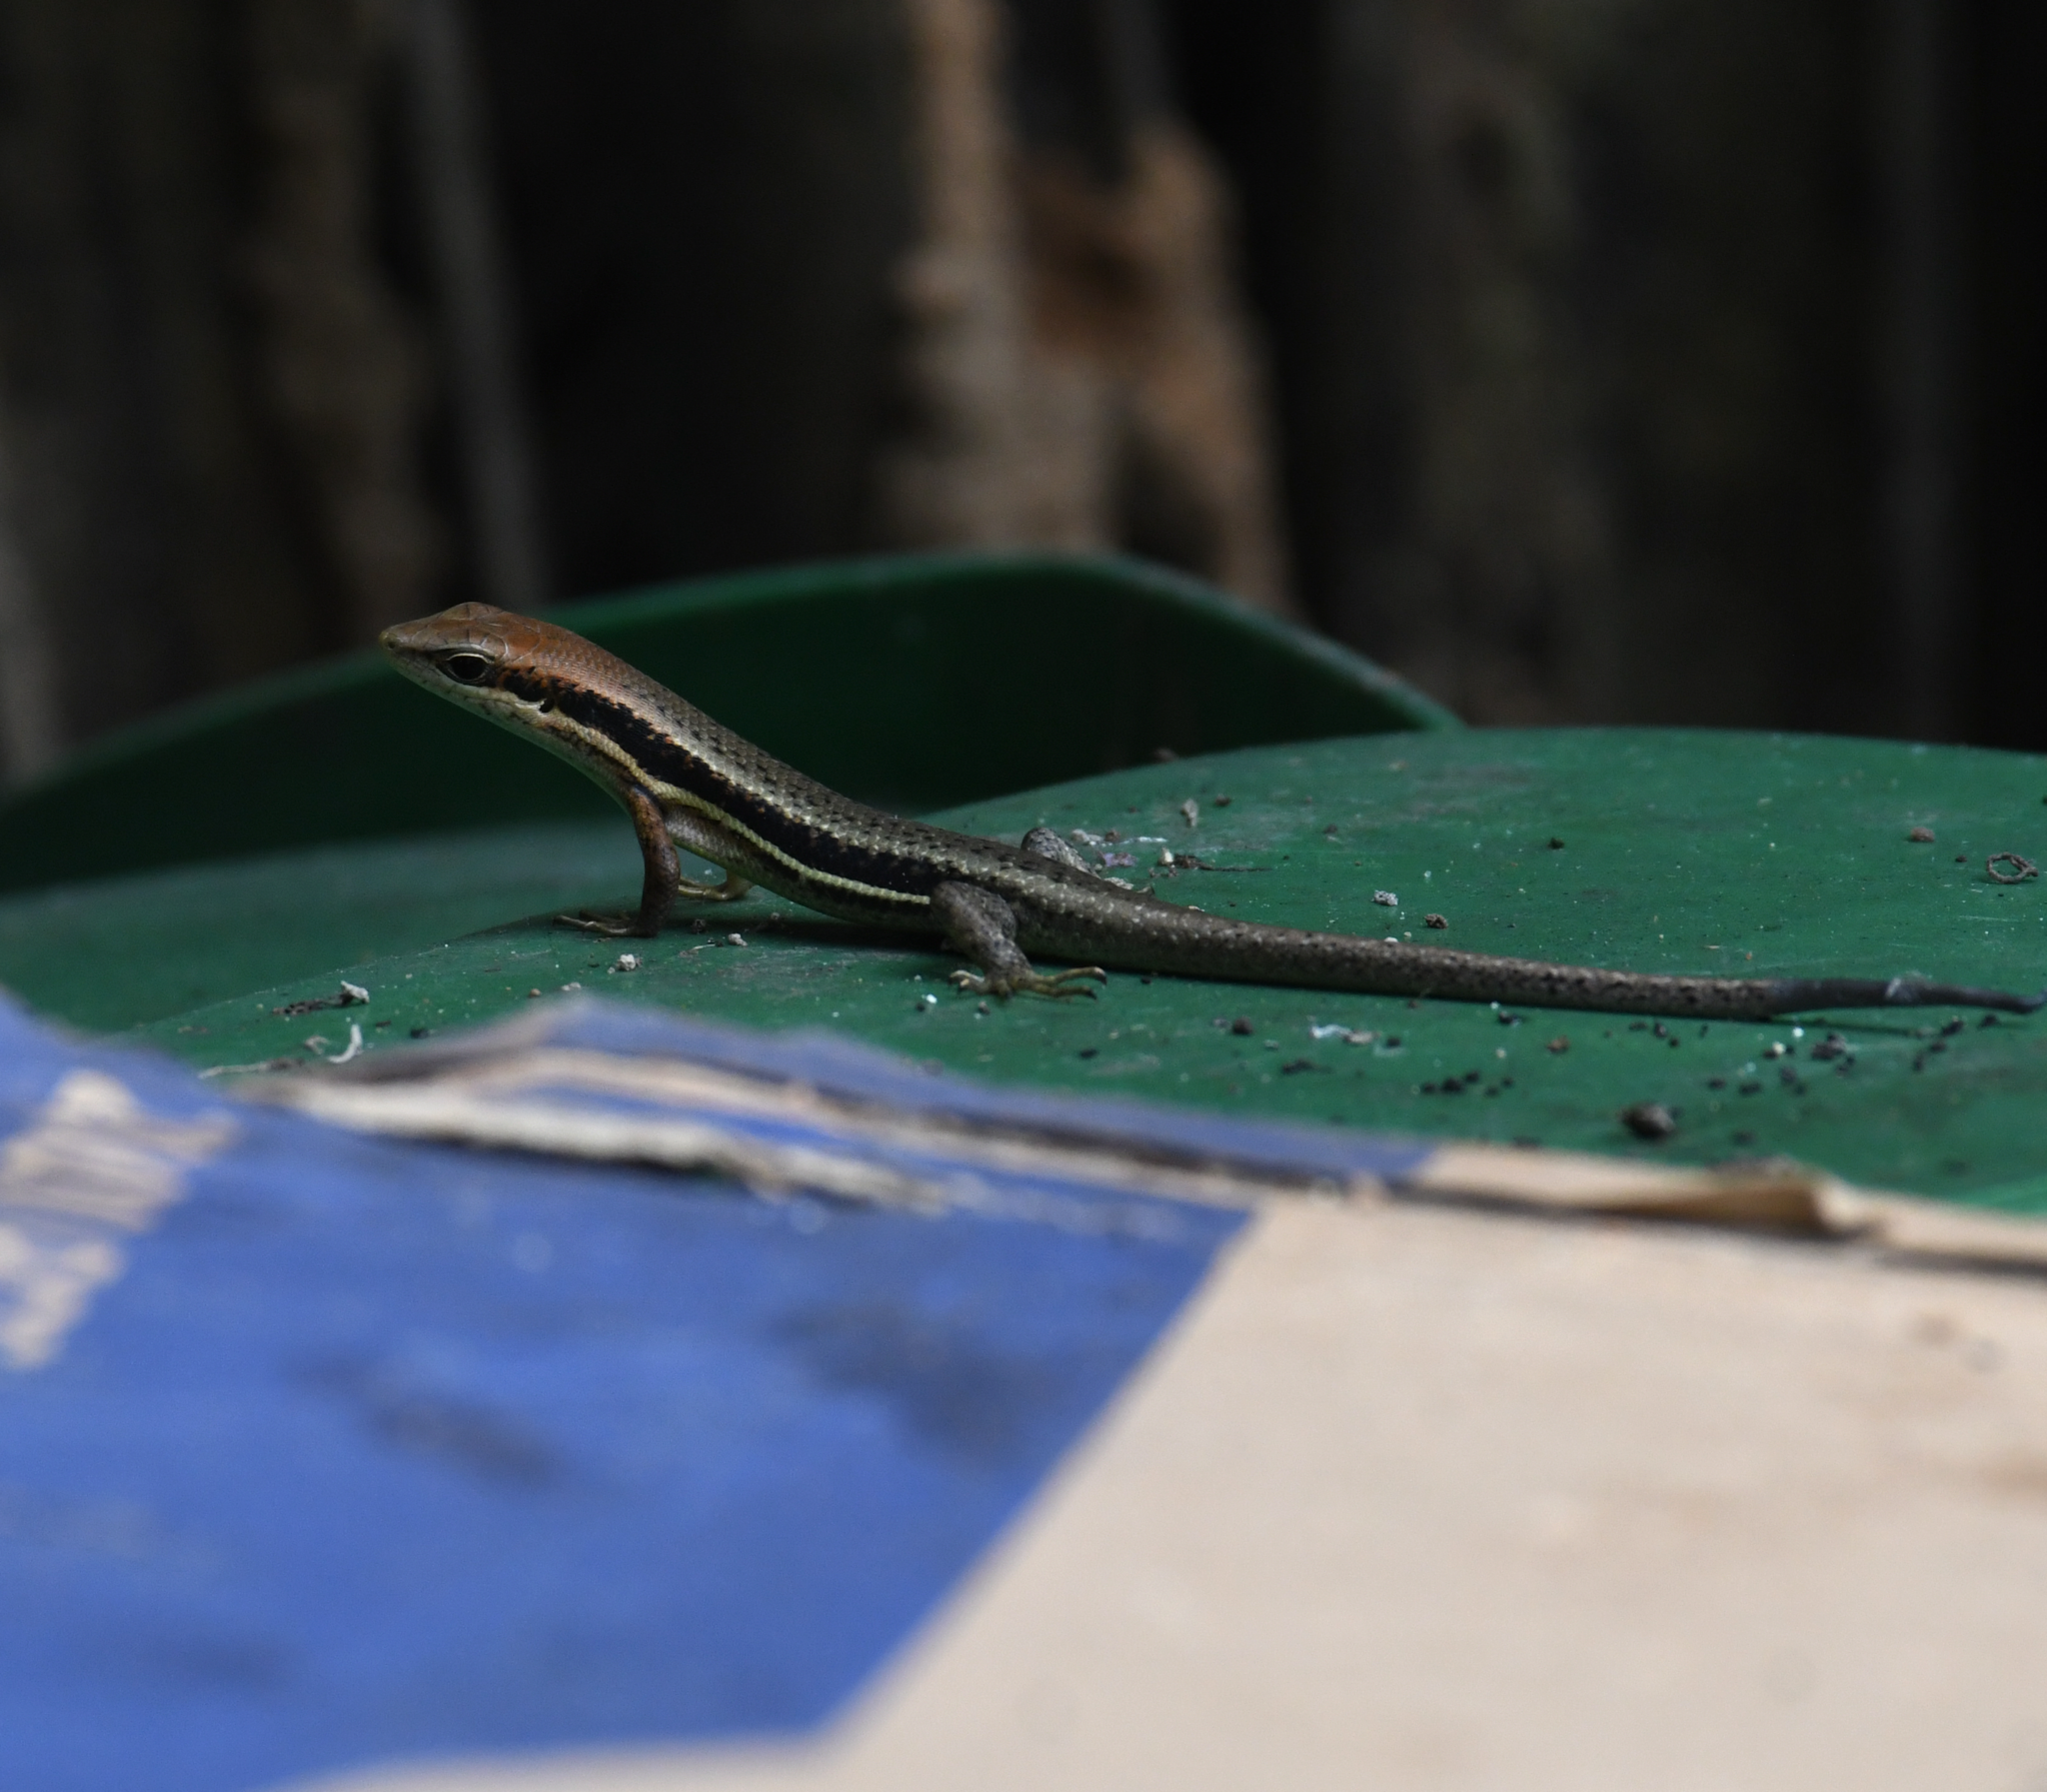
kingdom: Animalia
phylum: Chordata
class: Squamata
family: Scincidae
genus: Trachylepis
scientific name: Trachylepis affinis
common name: Senegal mabuya
